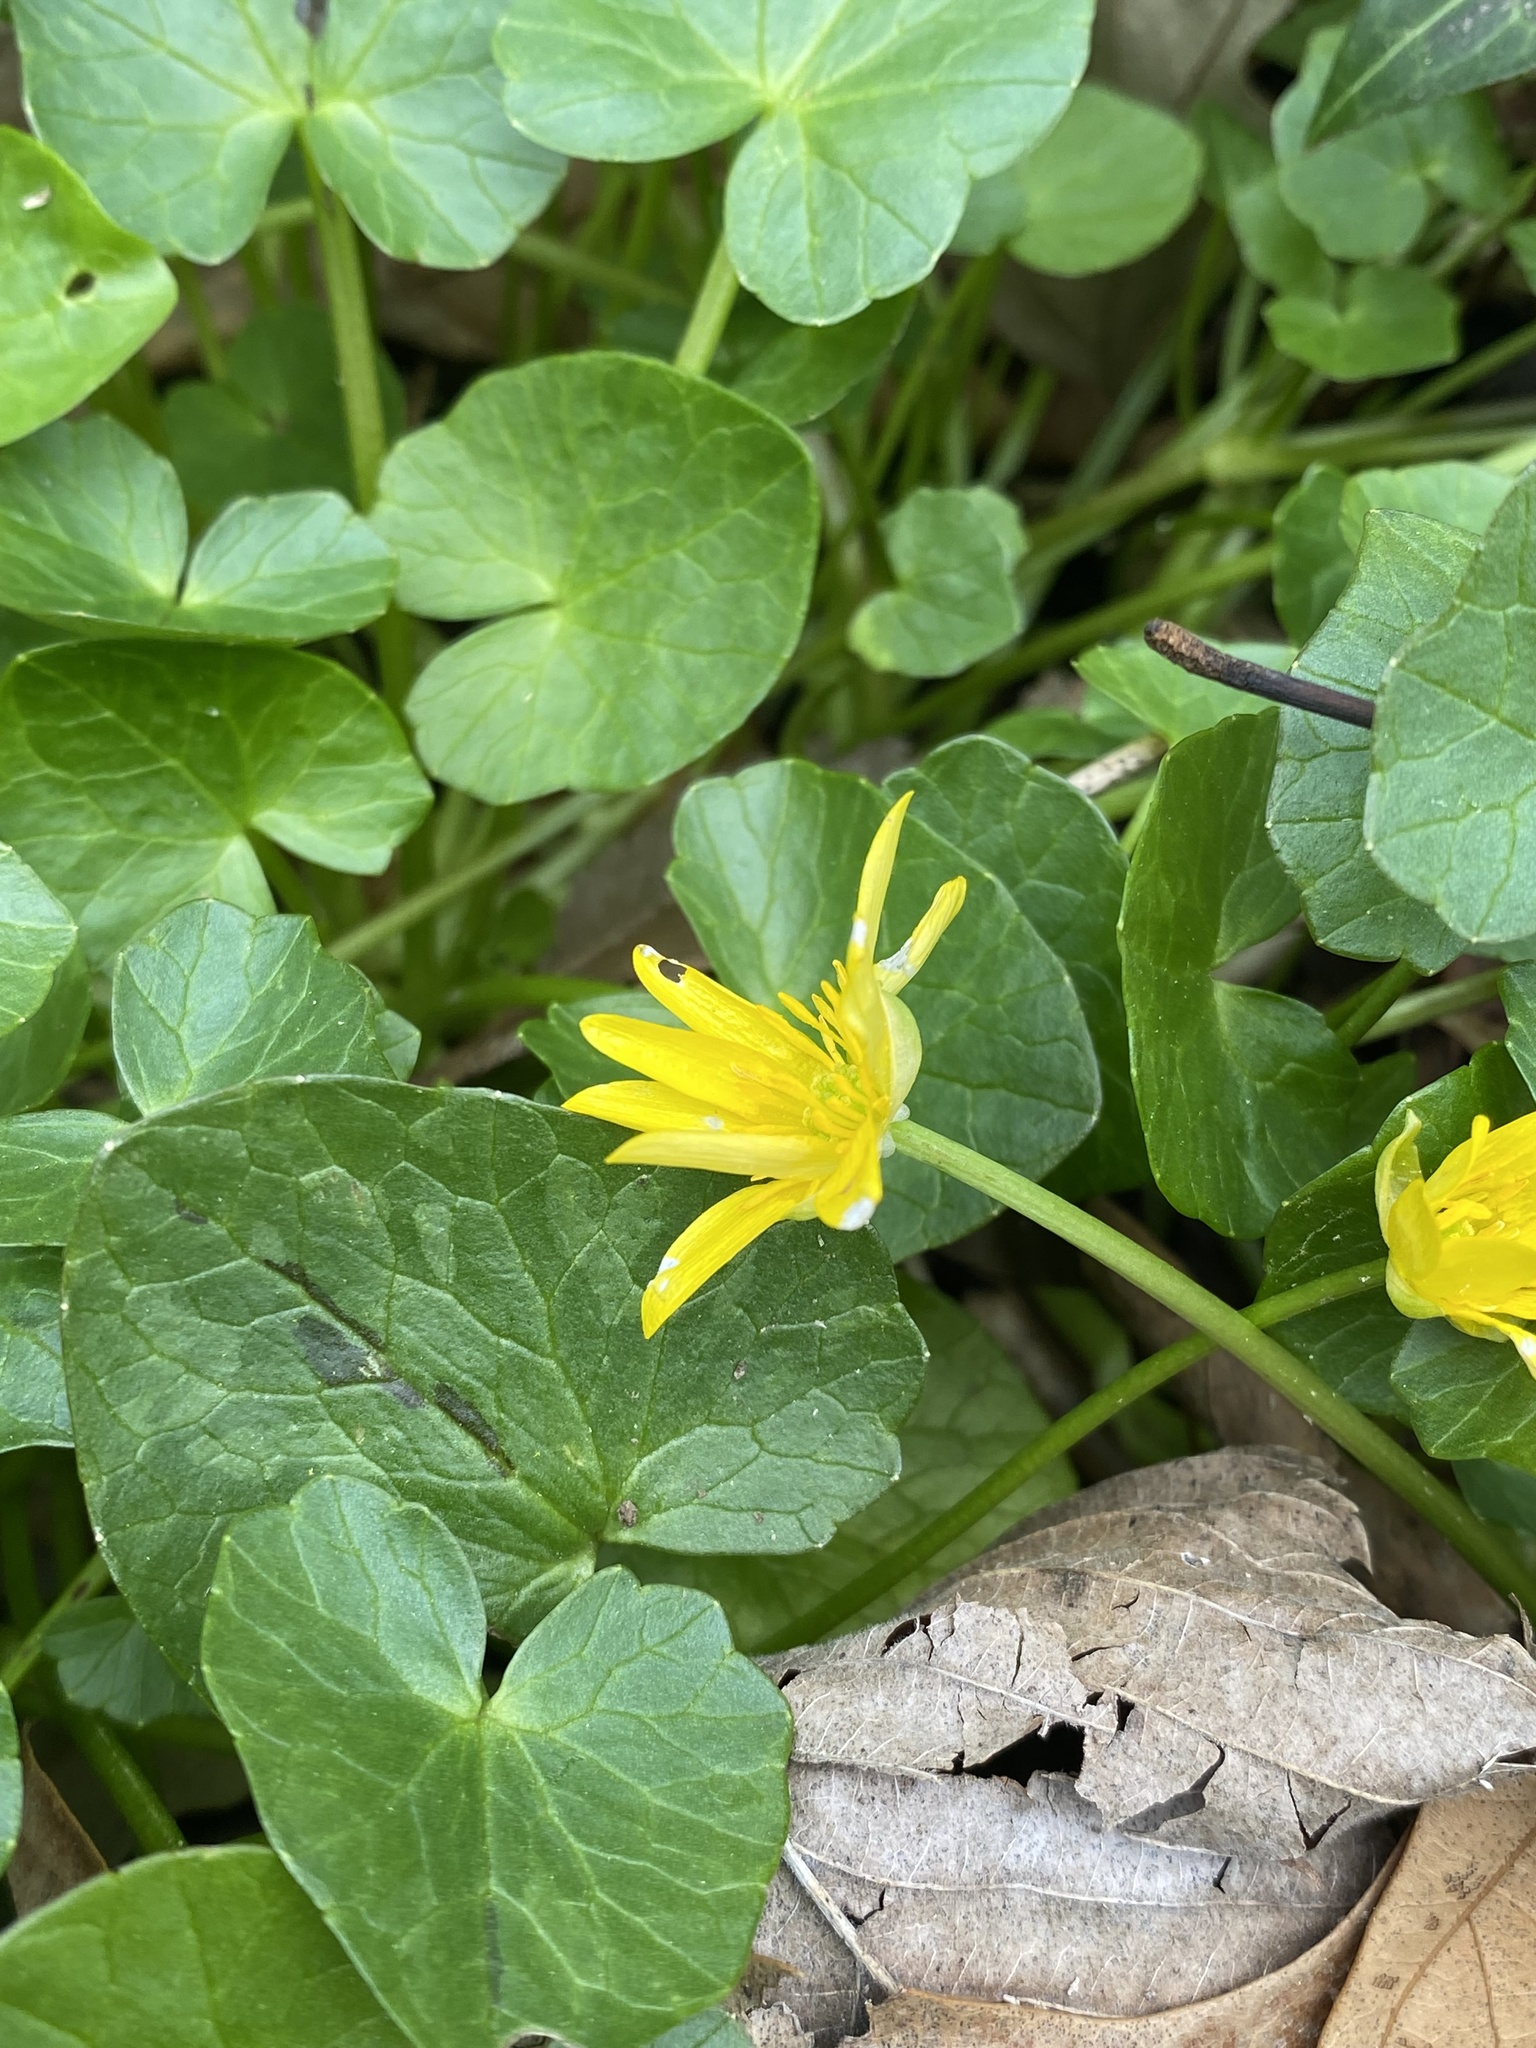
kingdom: Plantae
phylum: Tracheophyta
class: Magnoliopsida
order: Ranunculales
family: Ranunculaceae
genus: Ficaria
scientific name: Ficaria verna
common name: Lesser celandine
